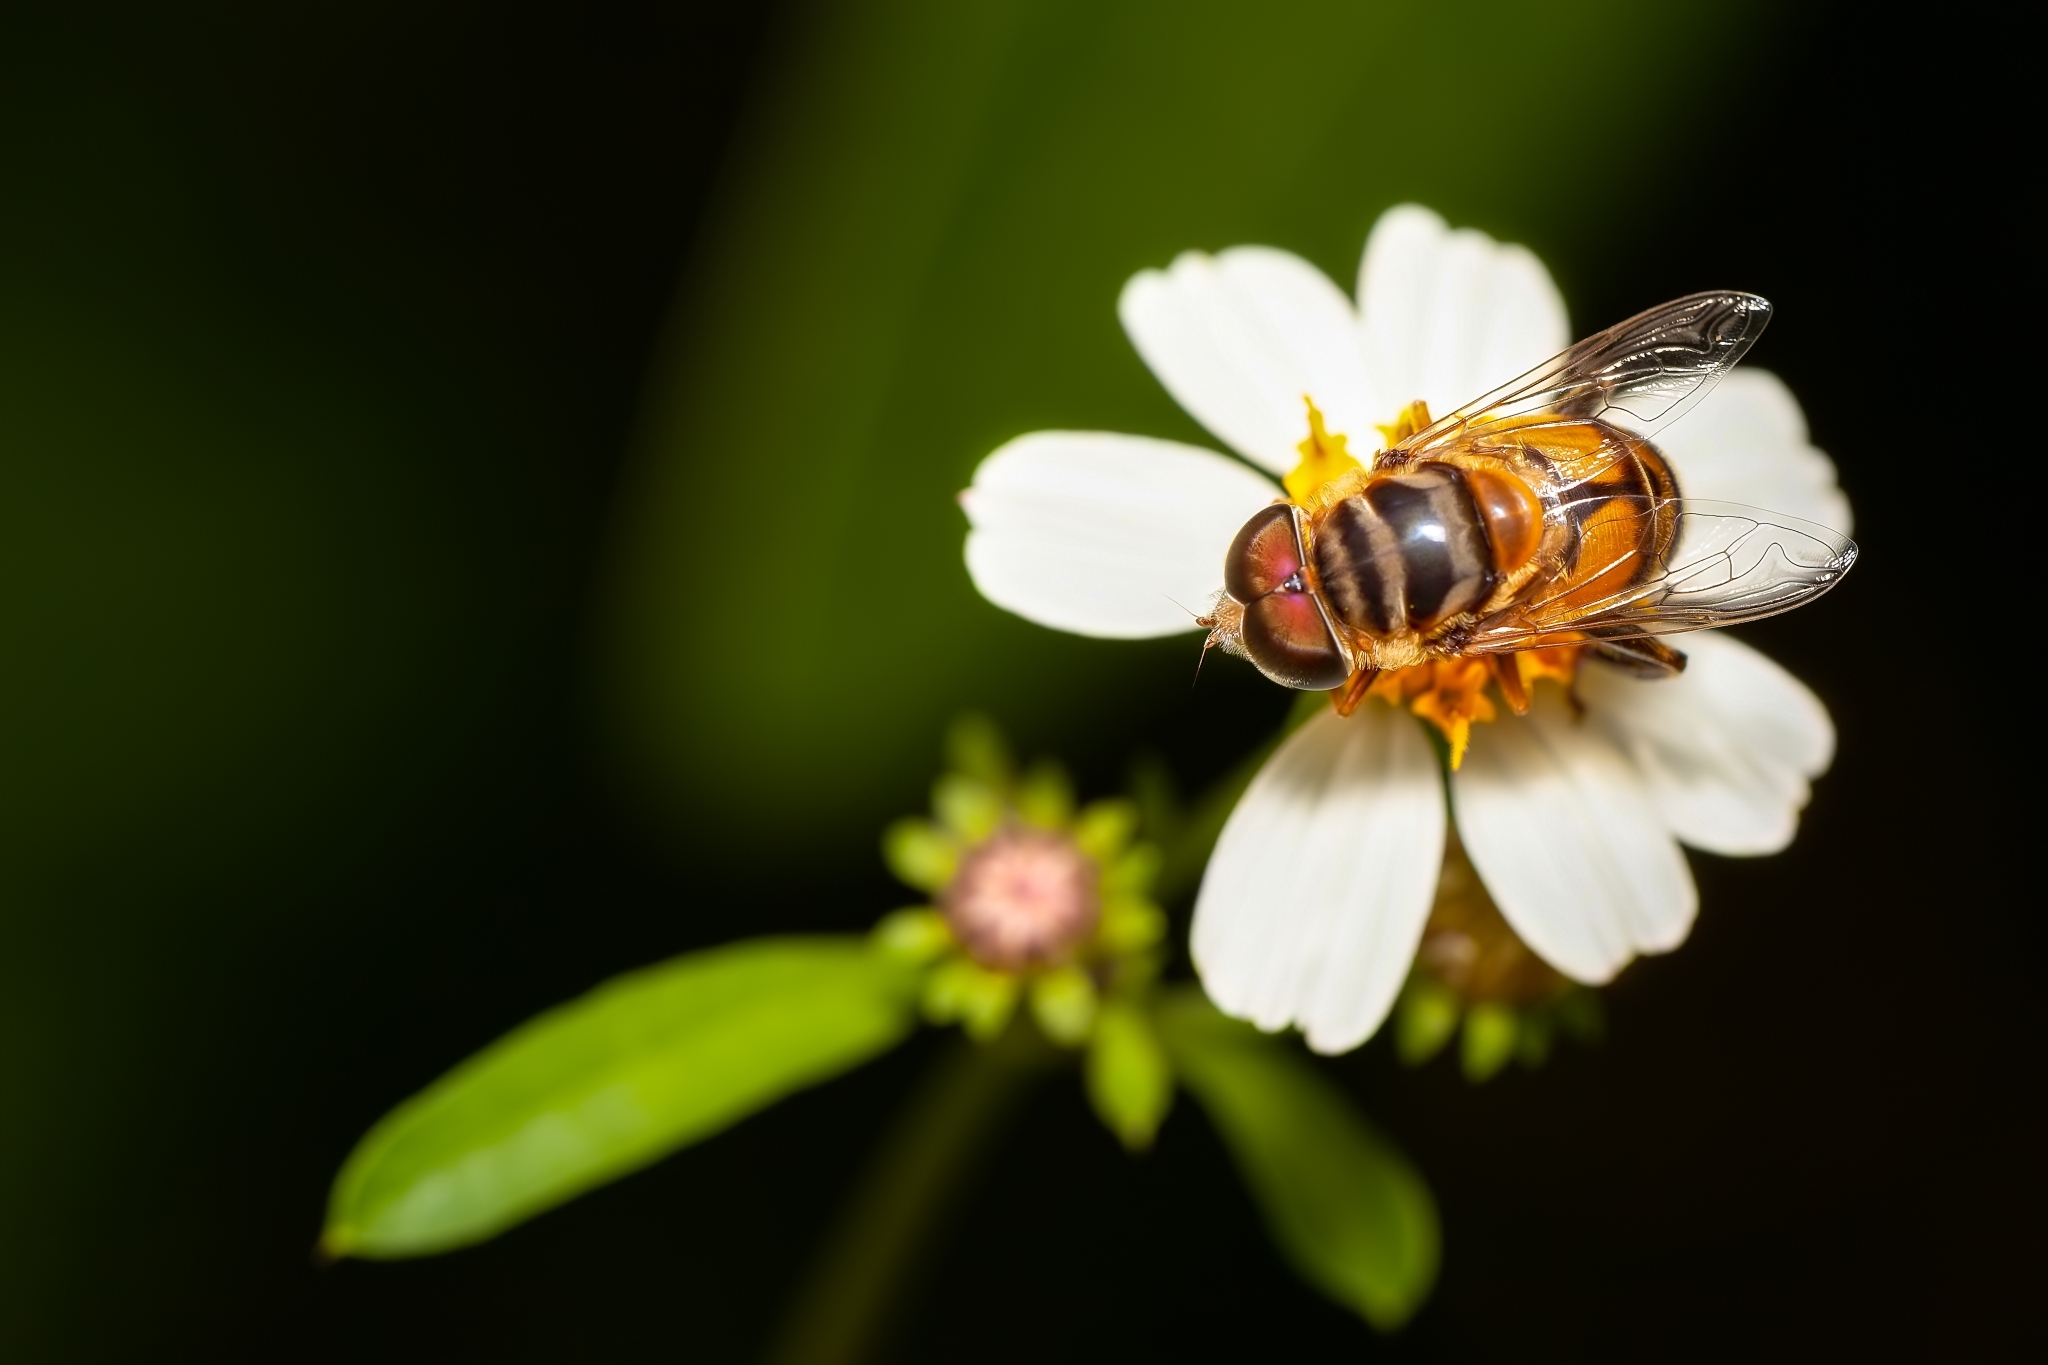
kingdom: Animalia
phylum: Arthropoda
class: Insecta
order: Diptera
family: Syrphidae
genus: Palpada
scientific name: Palpada vinetorum
